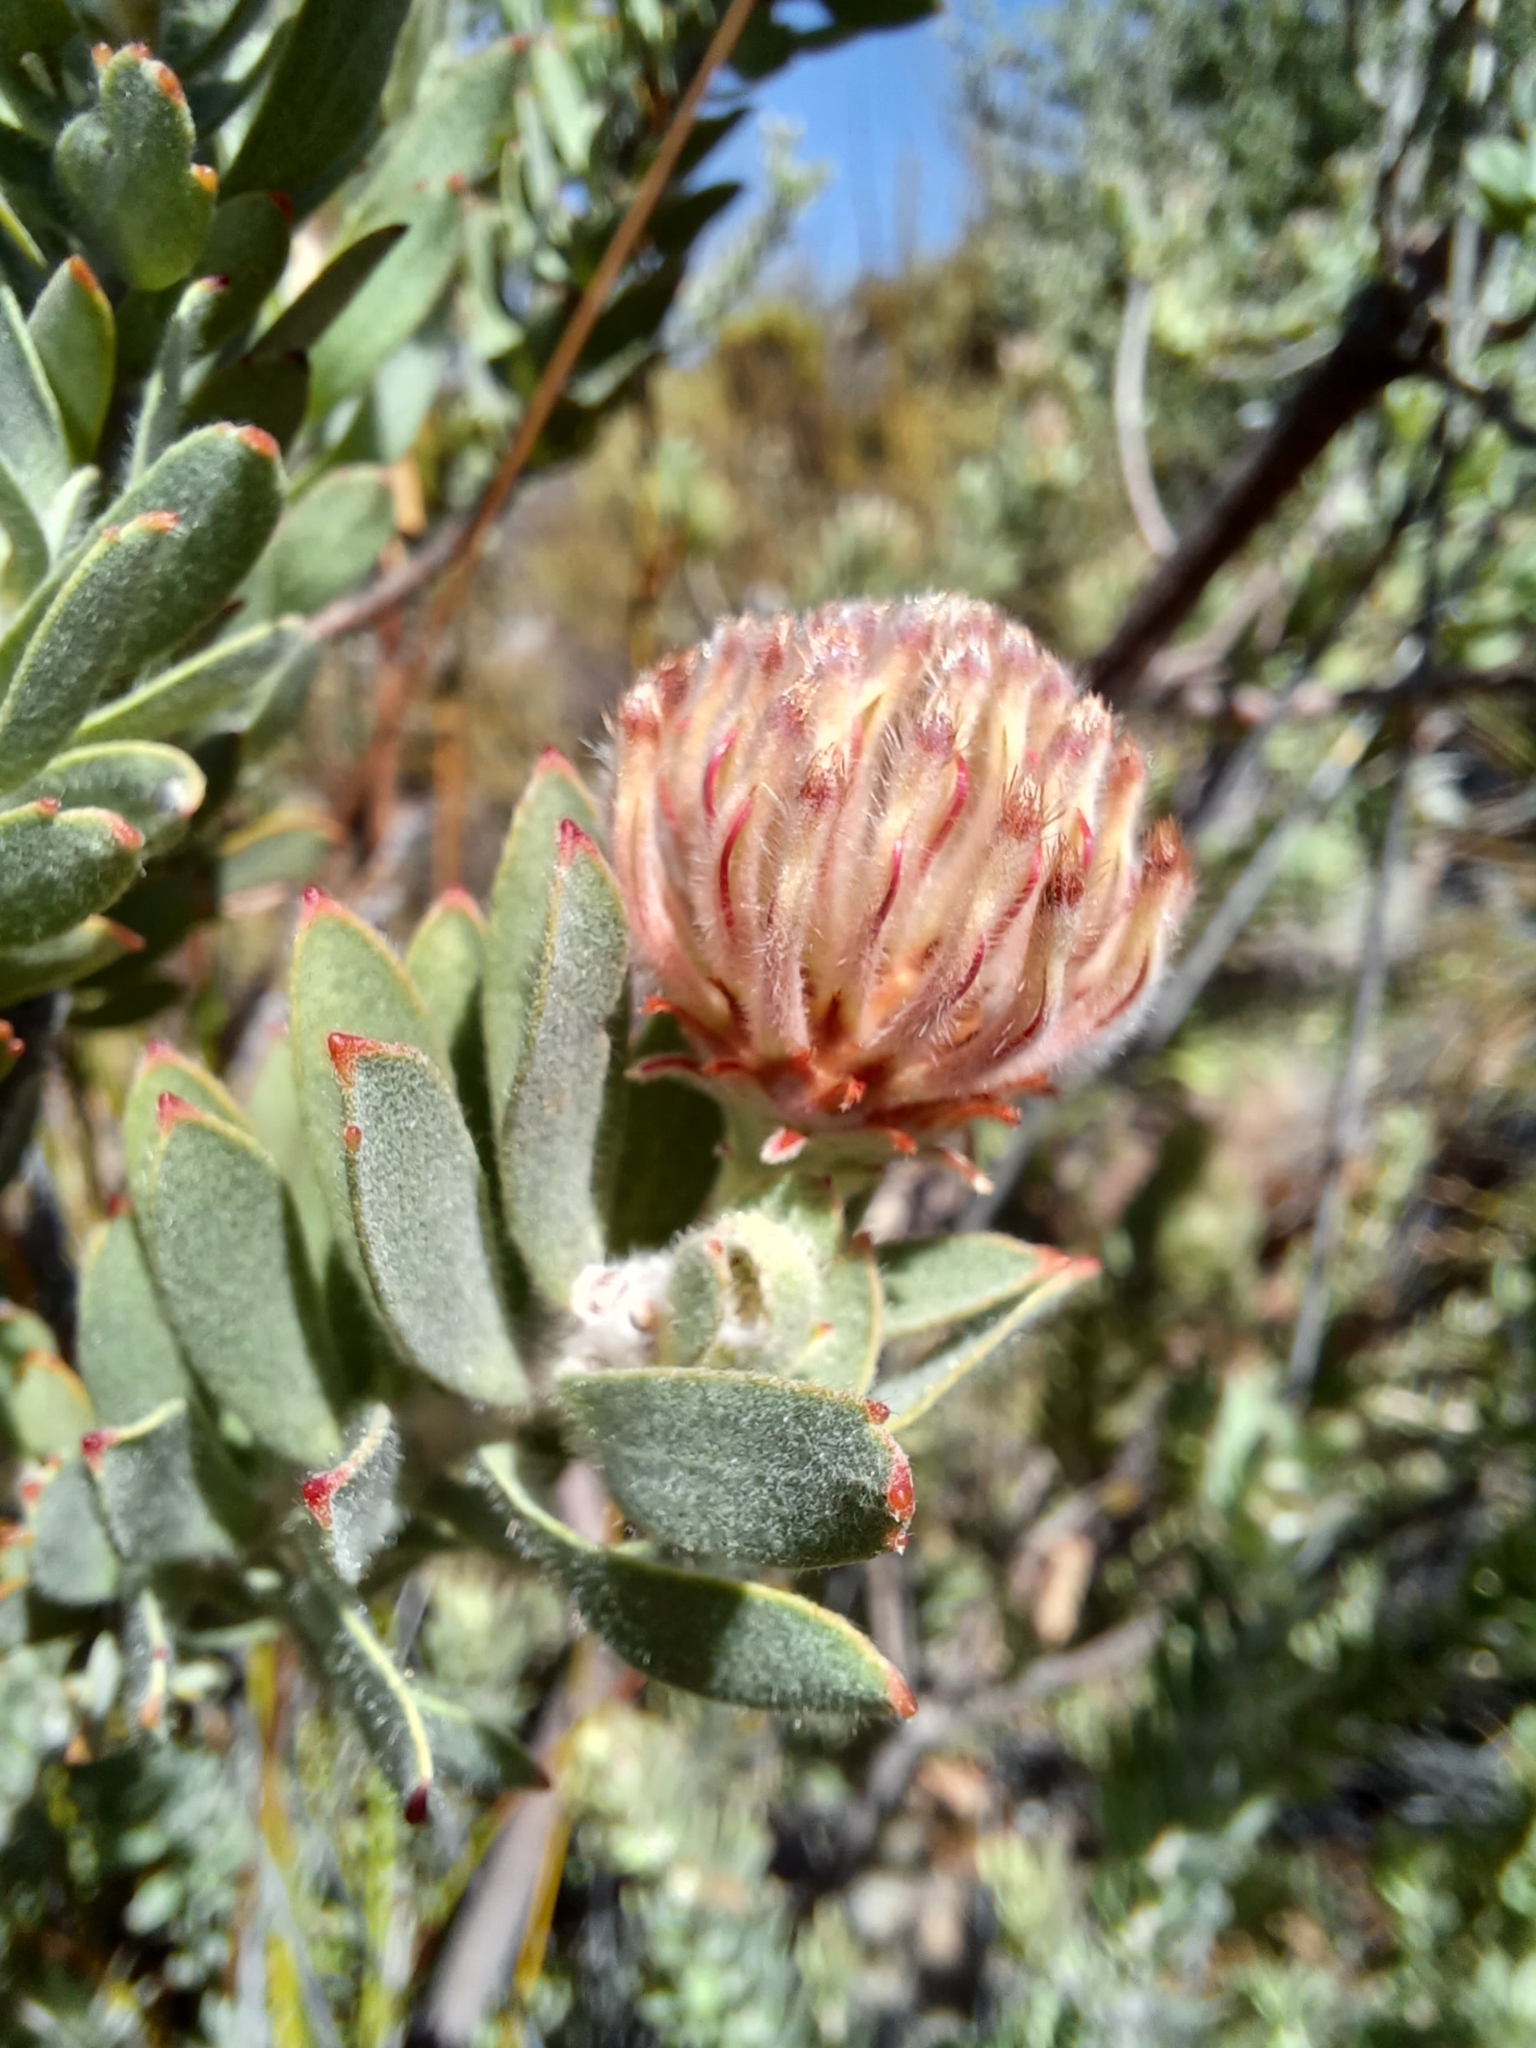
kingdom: Plantae
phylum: Tracheophyta
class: Magnoliopsida
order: Proteales
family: Proteaceae
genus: Leucospermum
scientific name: Leucospermum calligerum
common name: Arid pincushion
